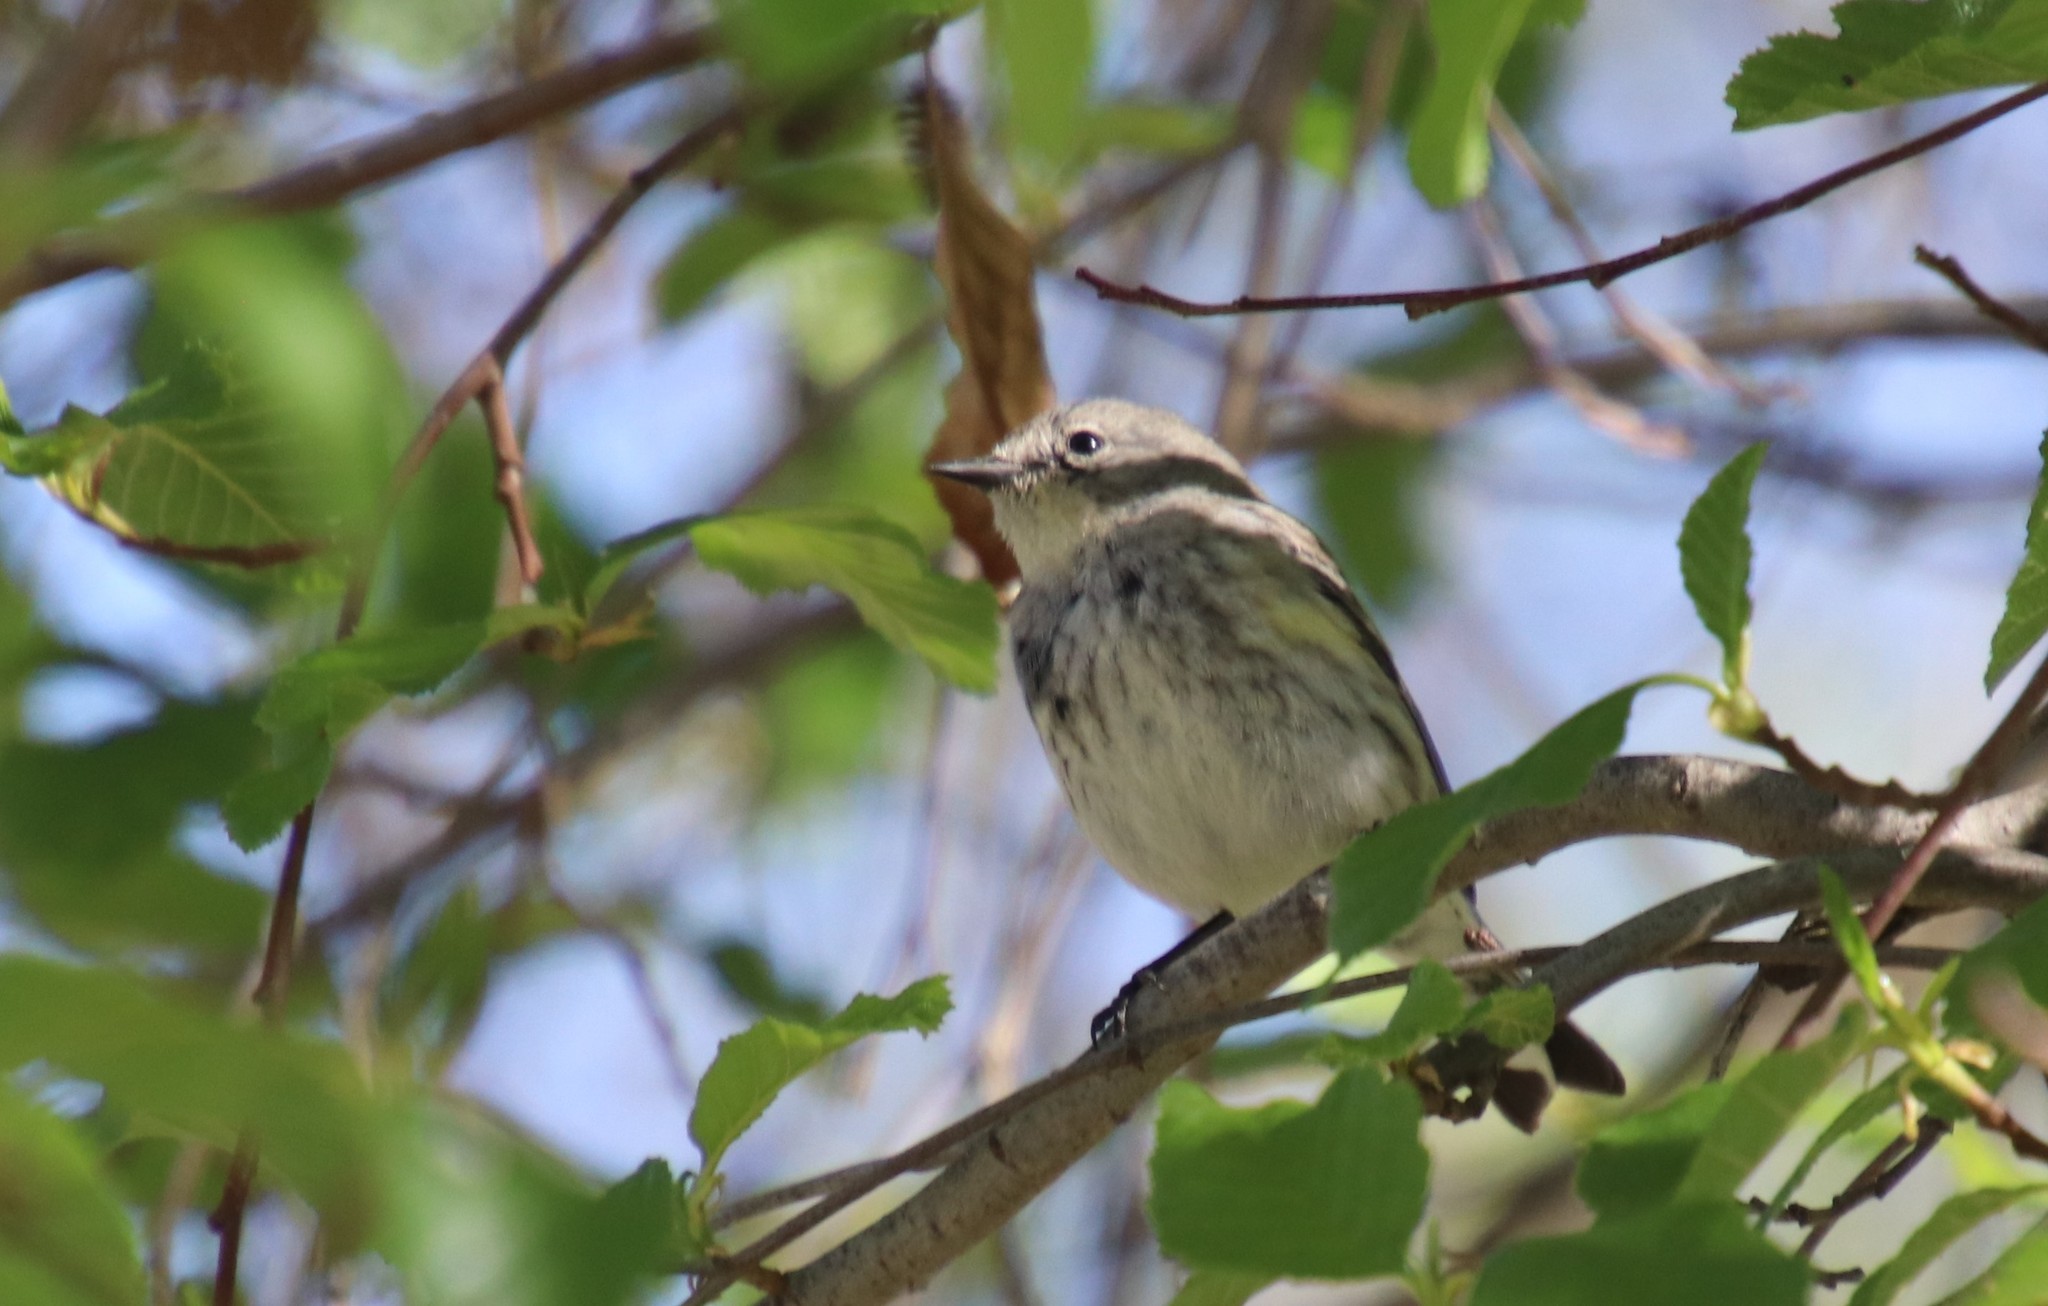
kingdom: Animalia
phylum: Chordata
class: Aves
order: Passeriformes
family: Parulidae
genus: Setophaga
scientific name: Setophaga coronata
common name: Myrtle warbler
